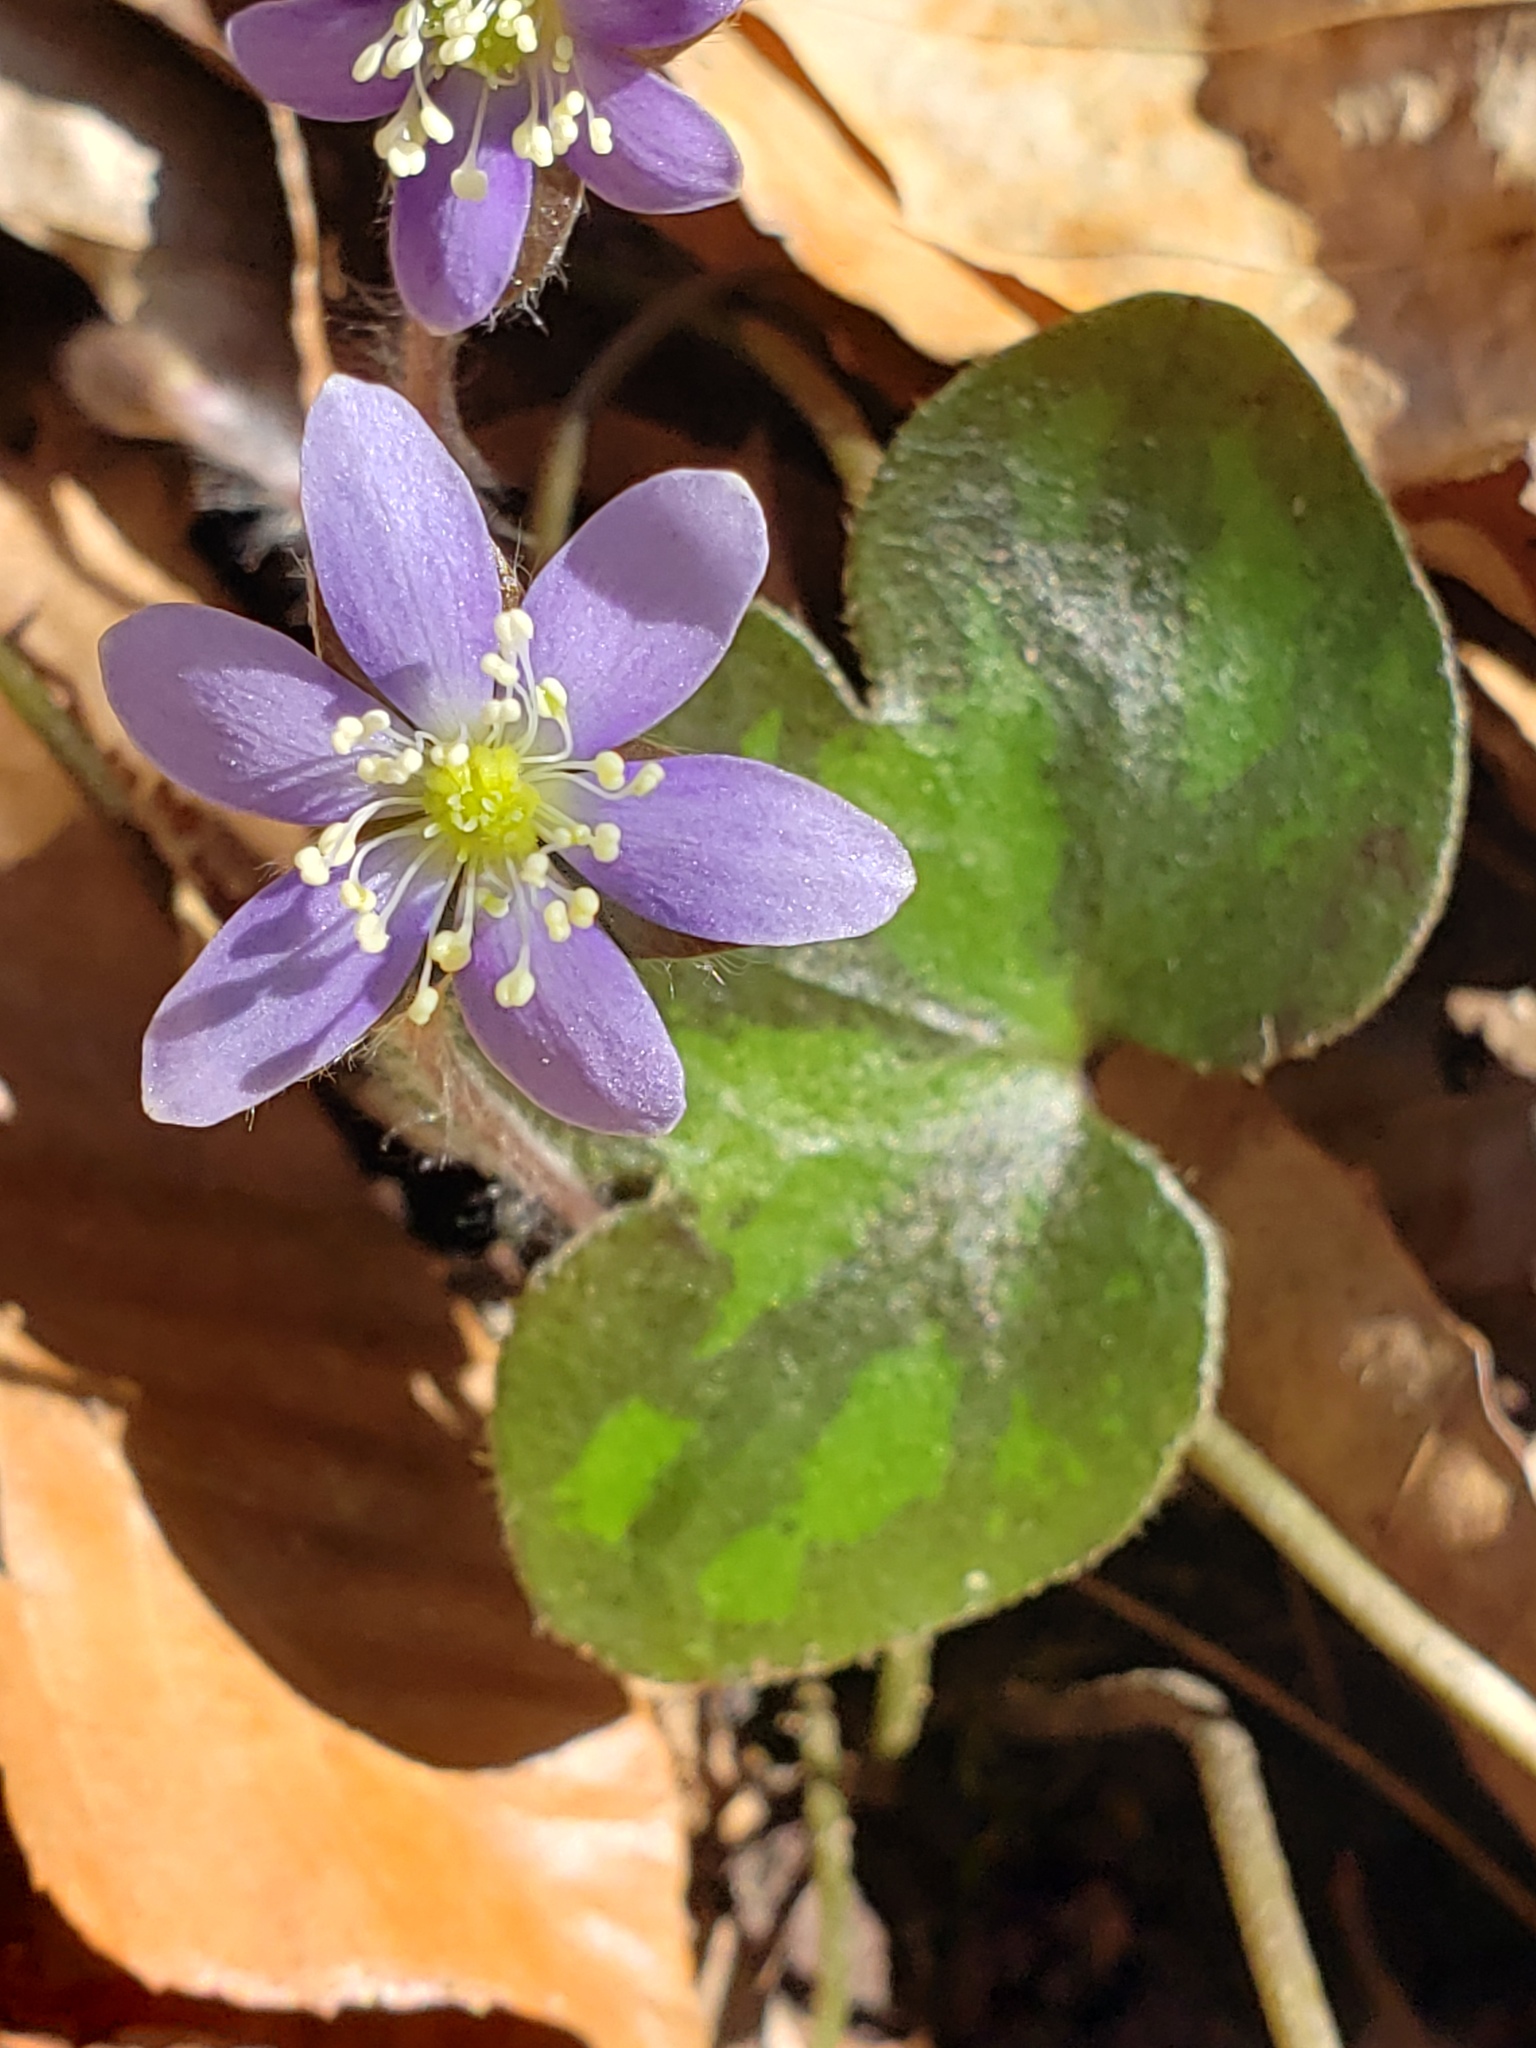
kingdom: Plantae
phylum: Tracheophyta
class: Magnoliopsida
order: Ranunculales
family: Ranunculaceae
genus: Hepatica
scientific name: Hepatica americana
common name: American hepatica
